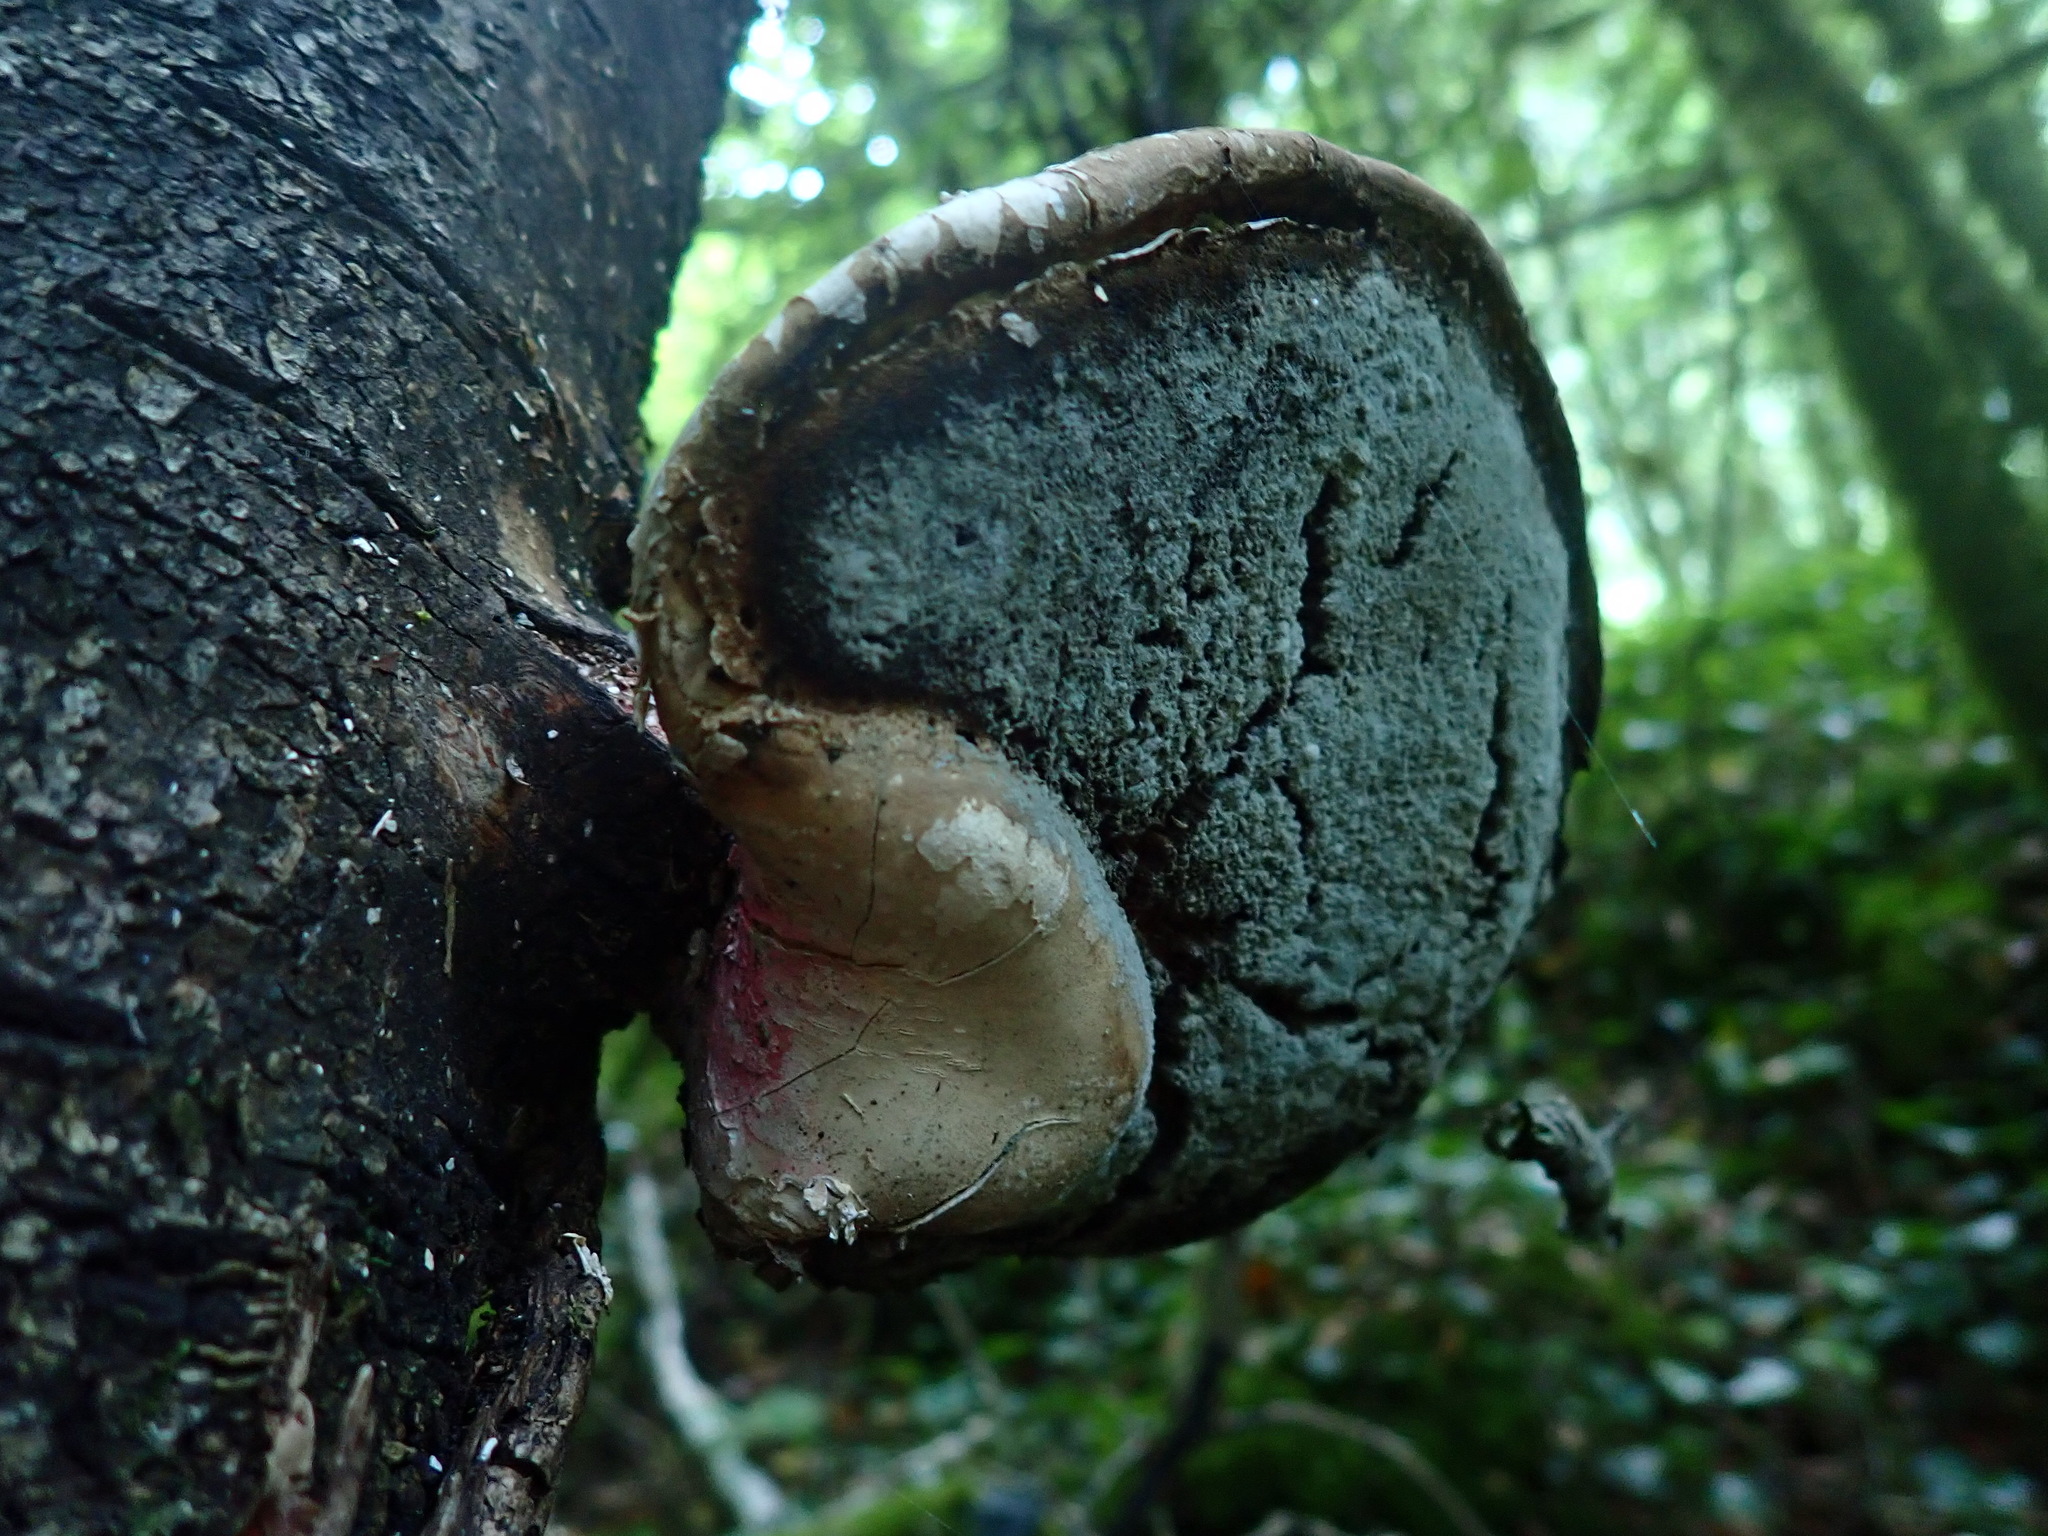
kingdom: Fungi
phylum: Basidiomycota
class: Agaricomycetes
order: Polyporales
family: Fomitopsidaceae
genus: Fomitopsis
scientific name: Fomitopsis betulina
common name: Birch polypore
